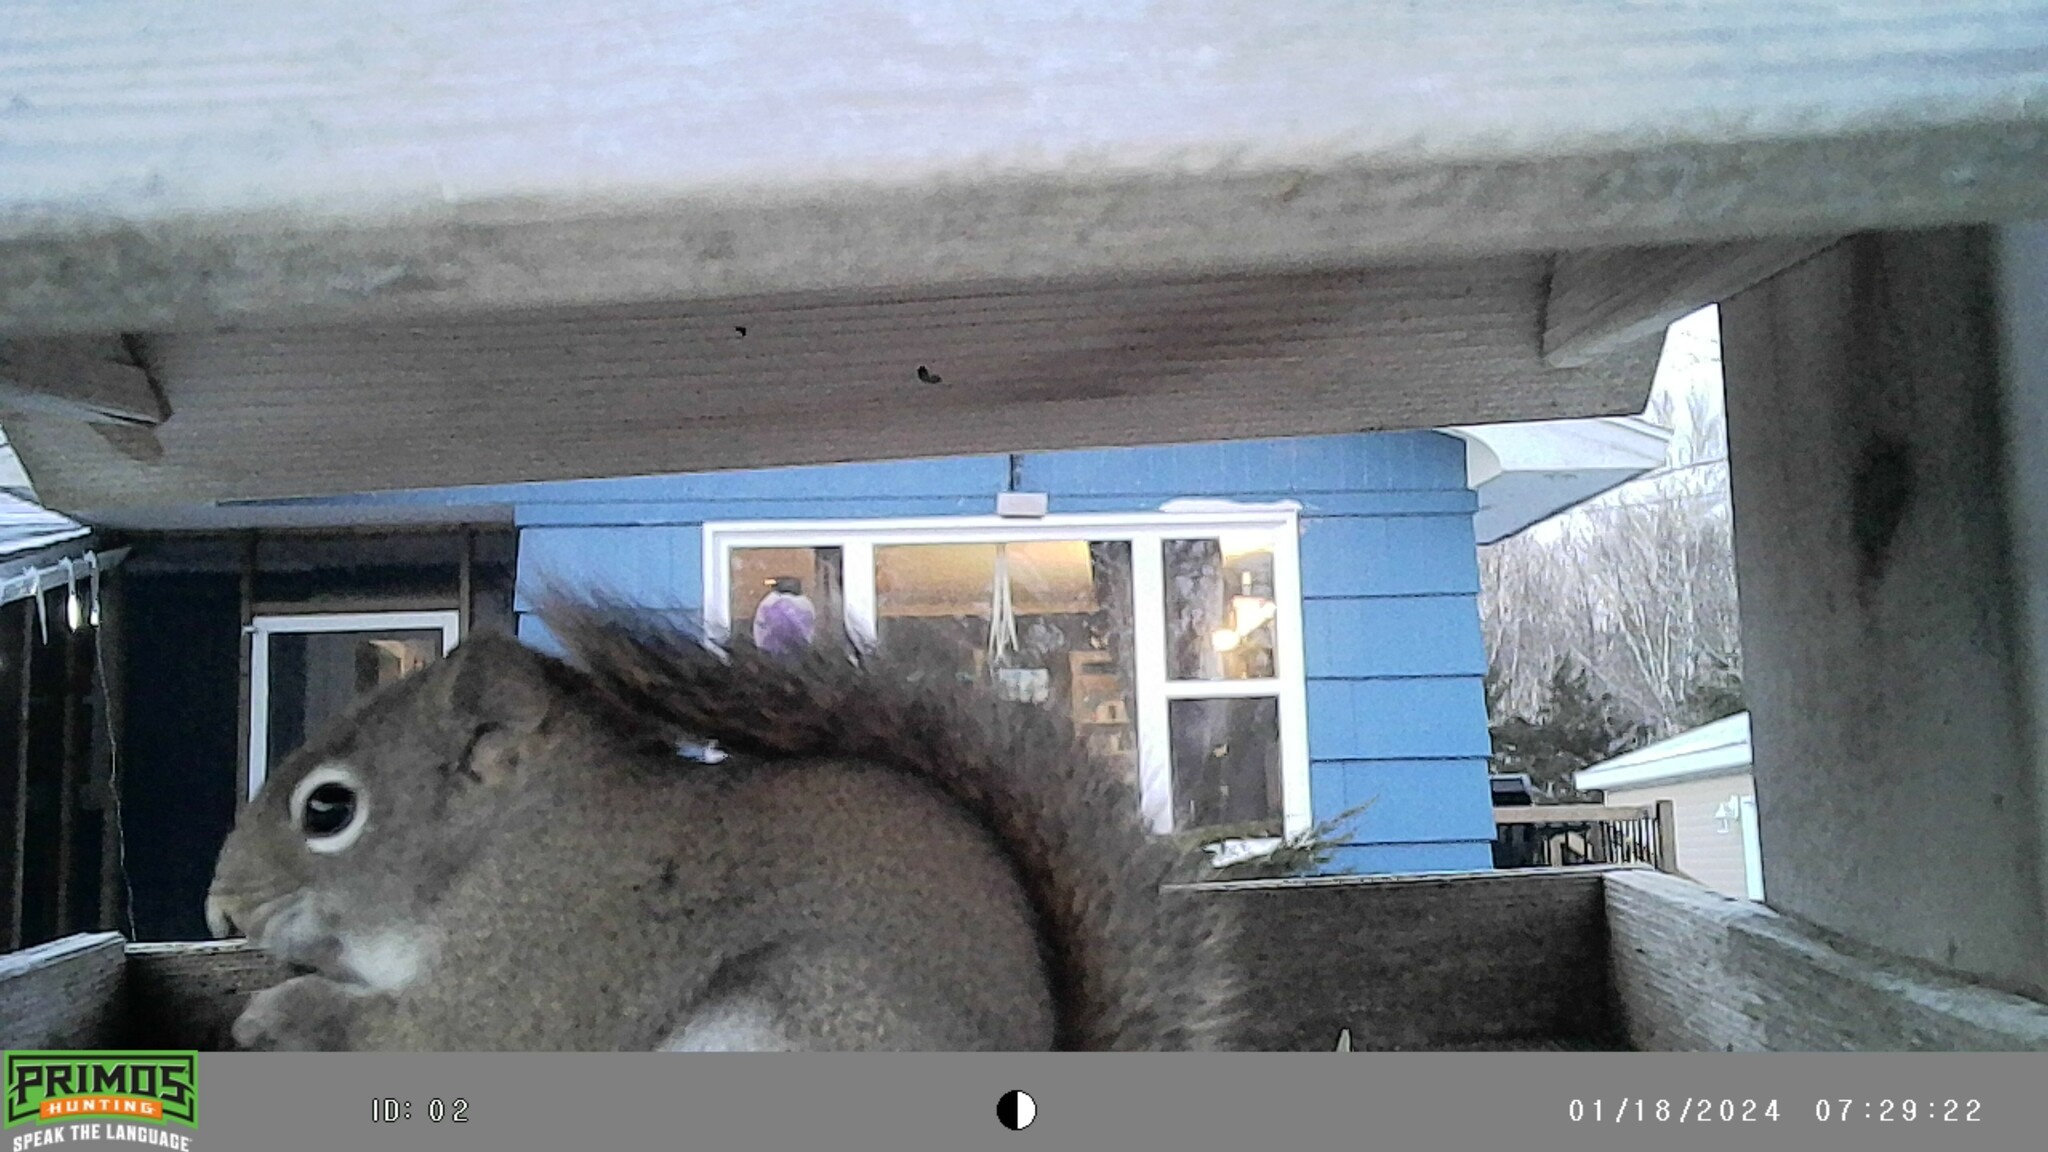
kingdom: Animalia
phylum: Chordata
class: Mammalia
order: Rodentia
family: Sciuridae
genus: Tamiasciurus
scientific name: Tamiasciurus hudsonicus
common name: Red squirrel
